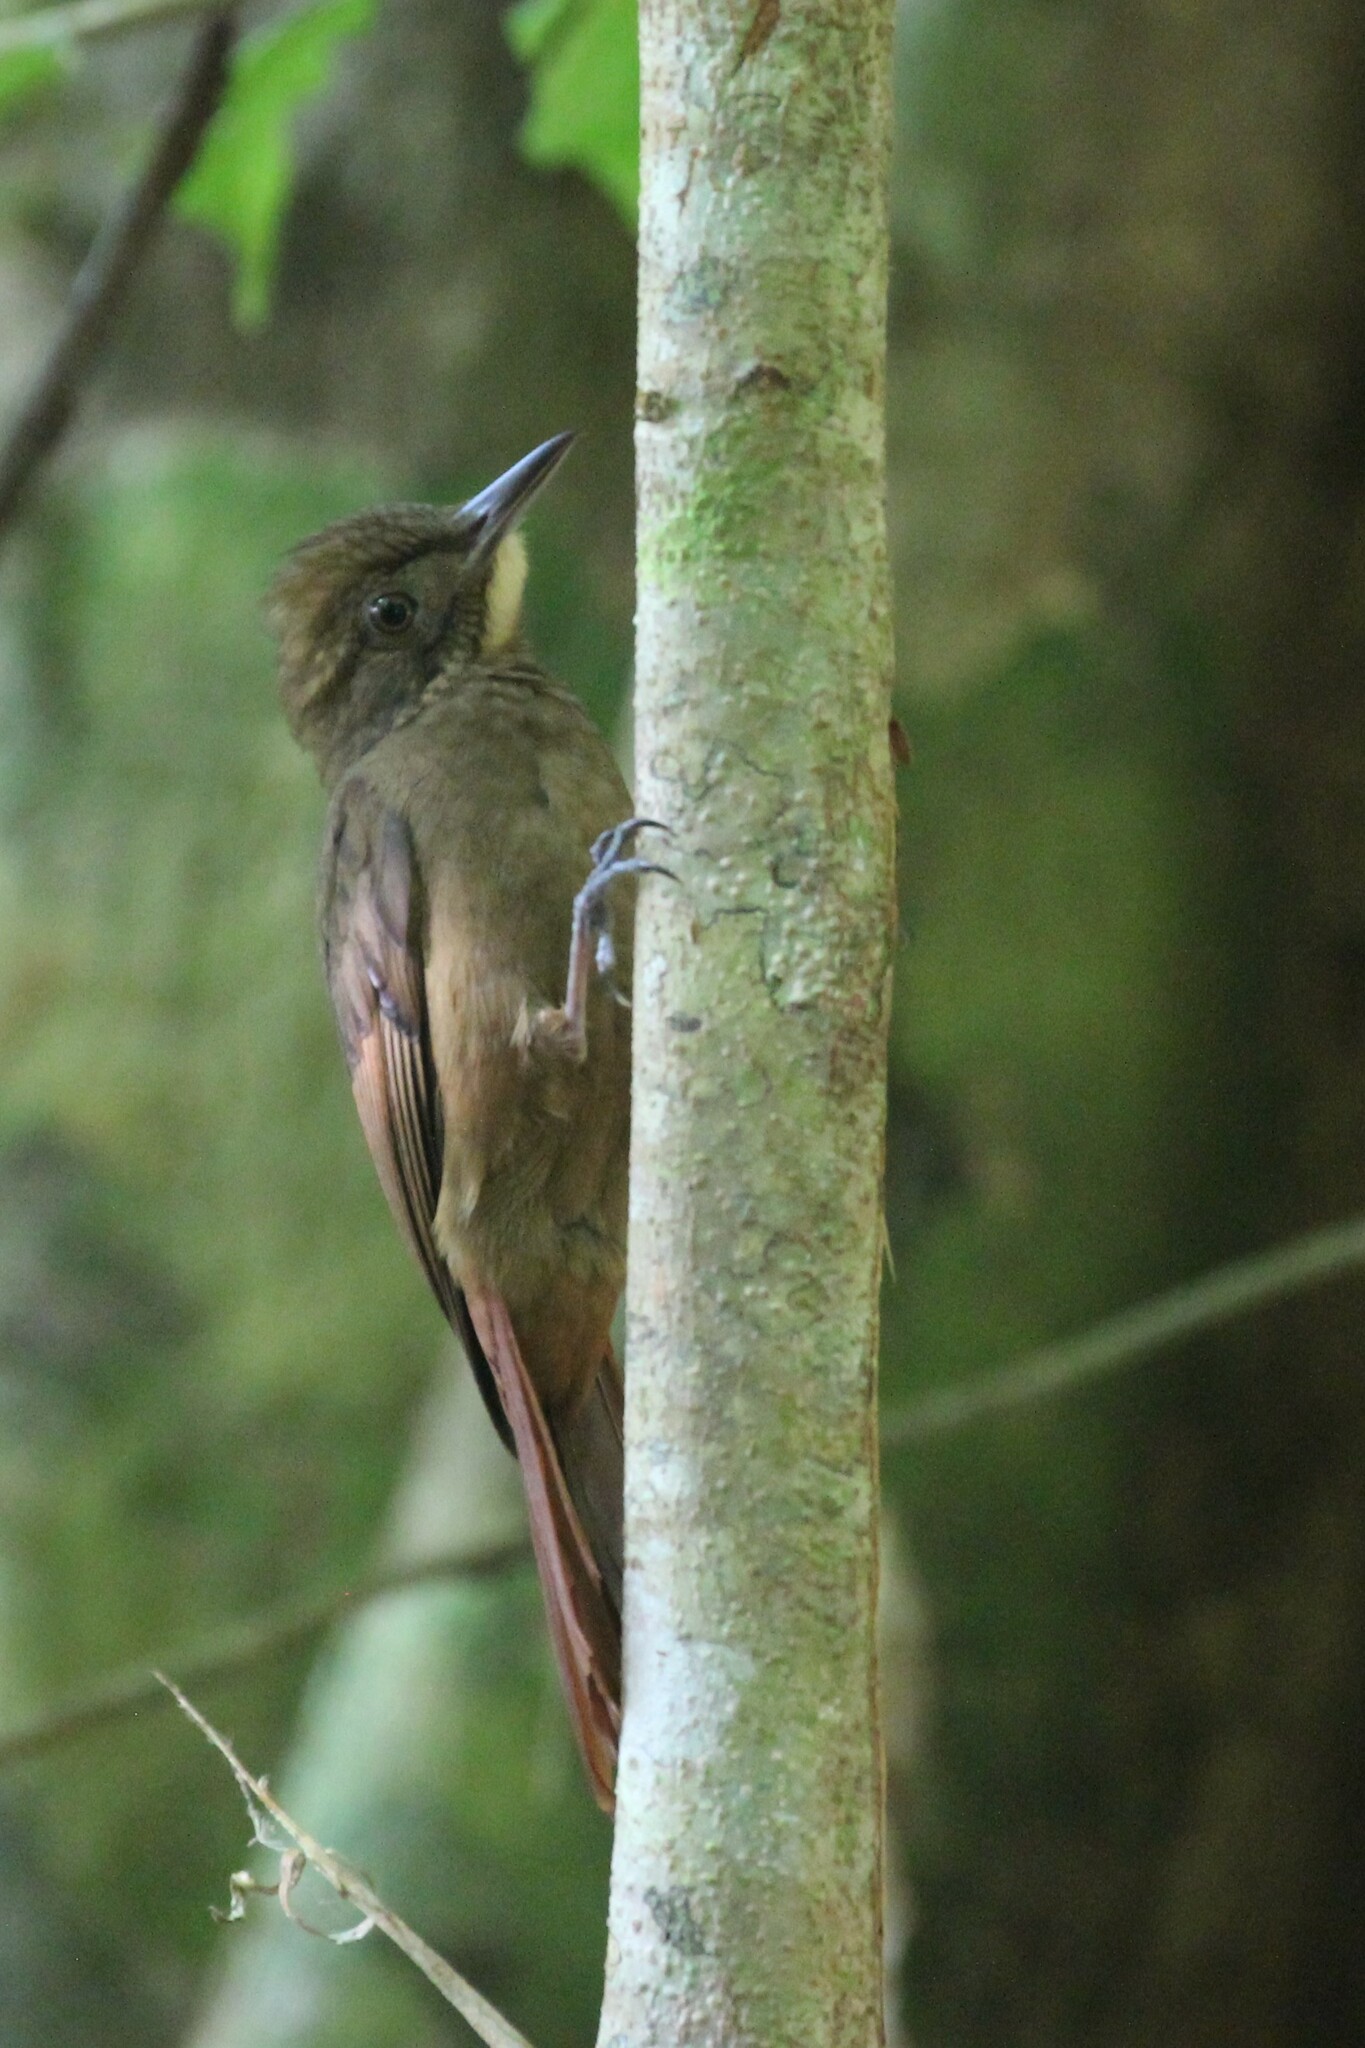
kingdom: Animalia
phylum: Chordata
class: Aves
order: Passeriformes
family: Furnariidae
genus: Dendrocincla
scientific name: Dendrocincla anabatina
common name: Tawny-winged woodcreeper
